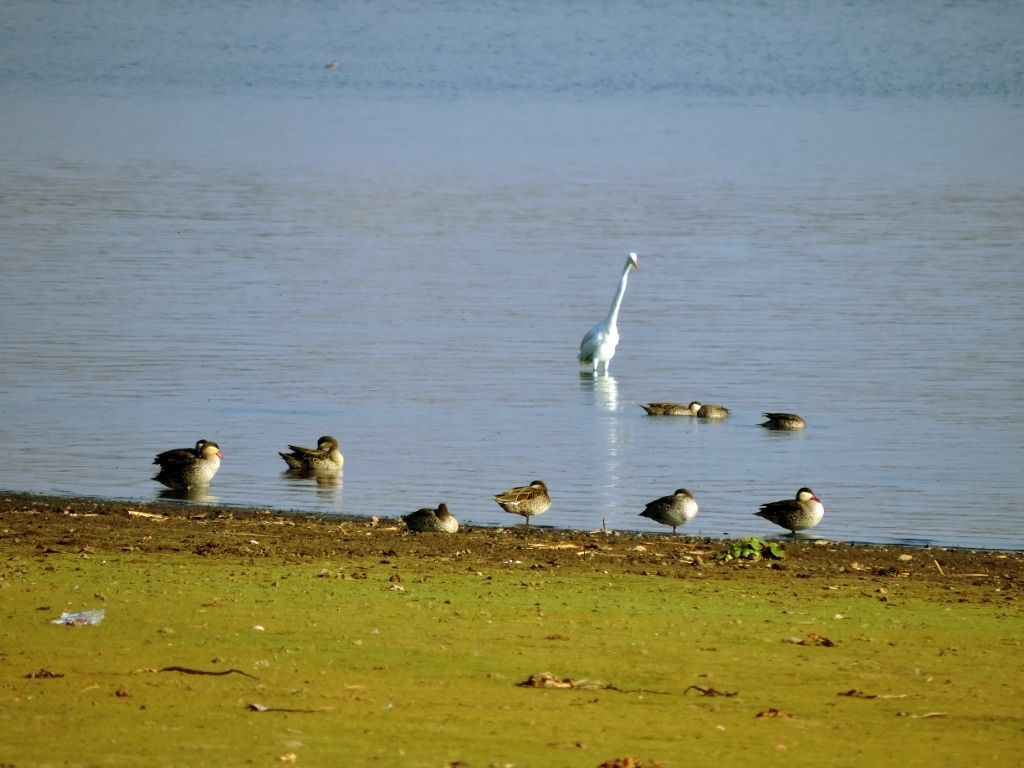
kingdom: Animalia
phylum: Chordata
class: Aves
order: Anseriformes
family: Anatidae
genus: Anas
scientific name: Anas erythrorhyncha
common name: Red-billed teal
